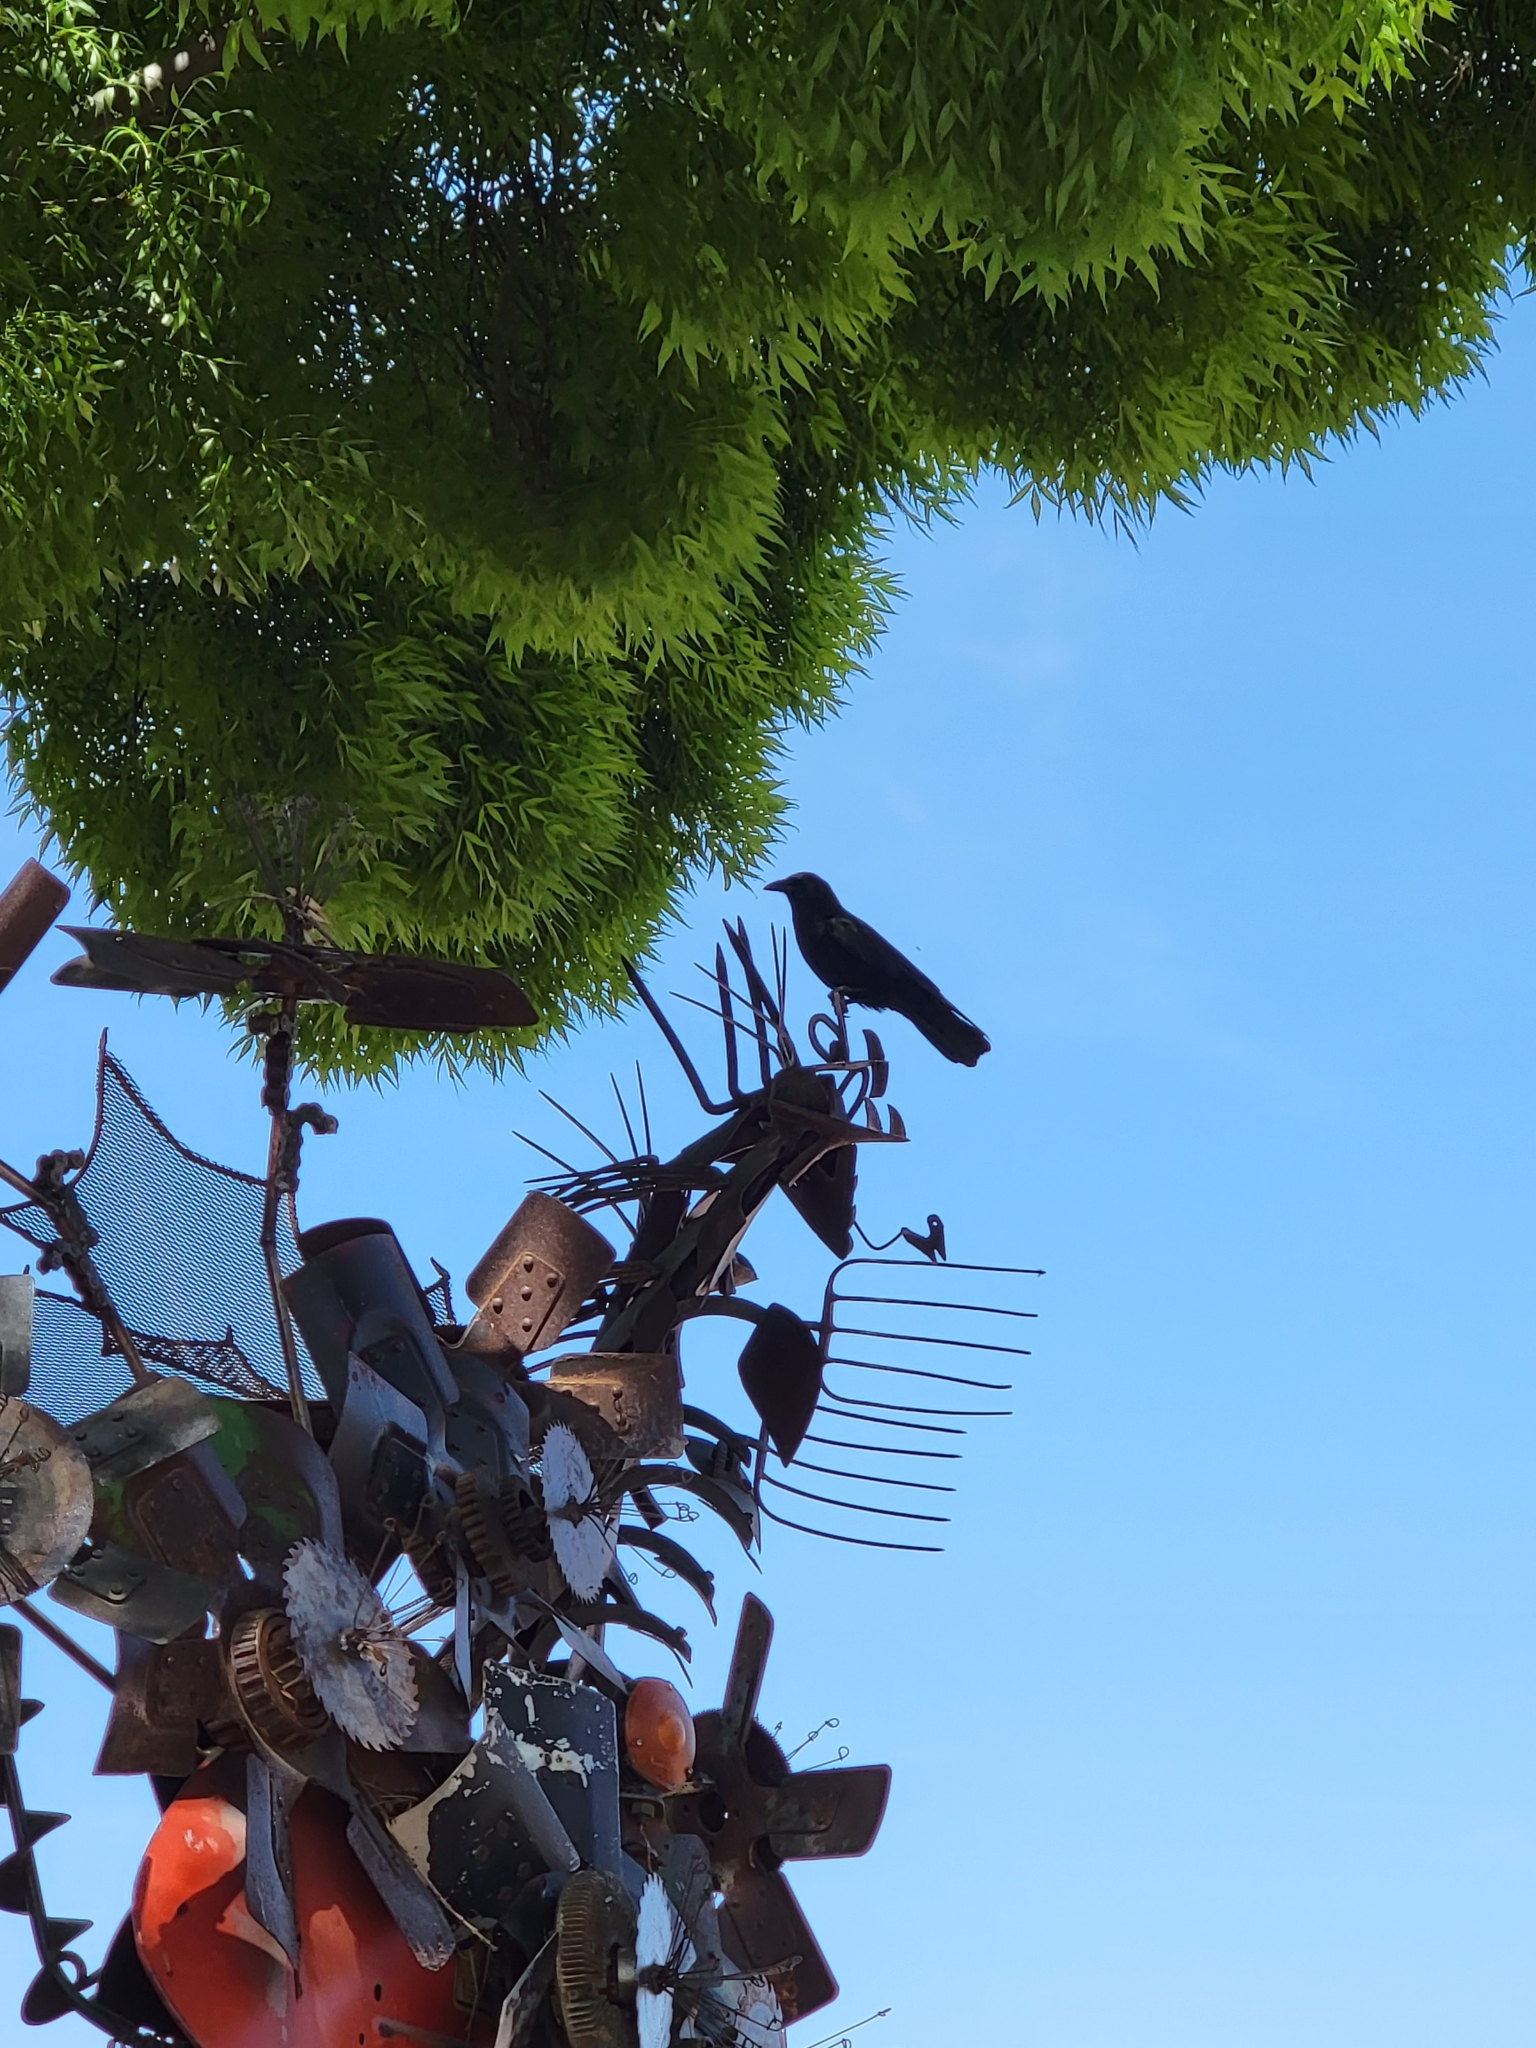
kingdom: Animalia
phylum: Chordata
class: Aves
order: Passeriformes
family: Corvidae
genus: Corvus
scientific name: Corvus brachyrhynchos
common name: American crow
